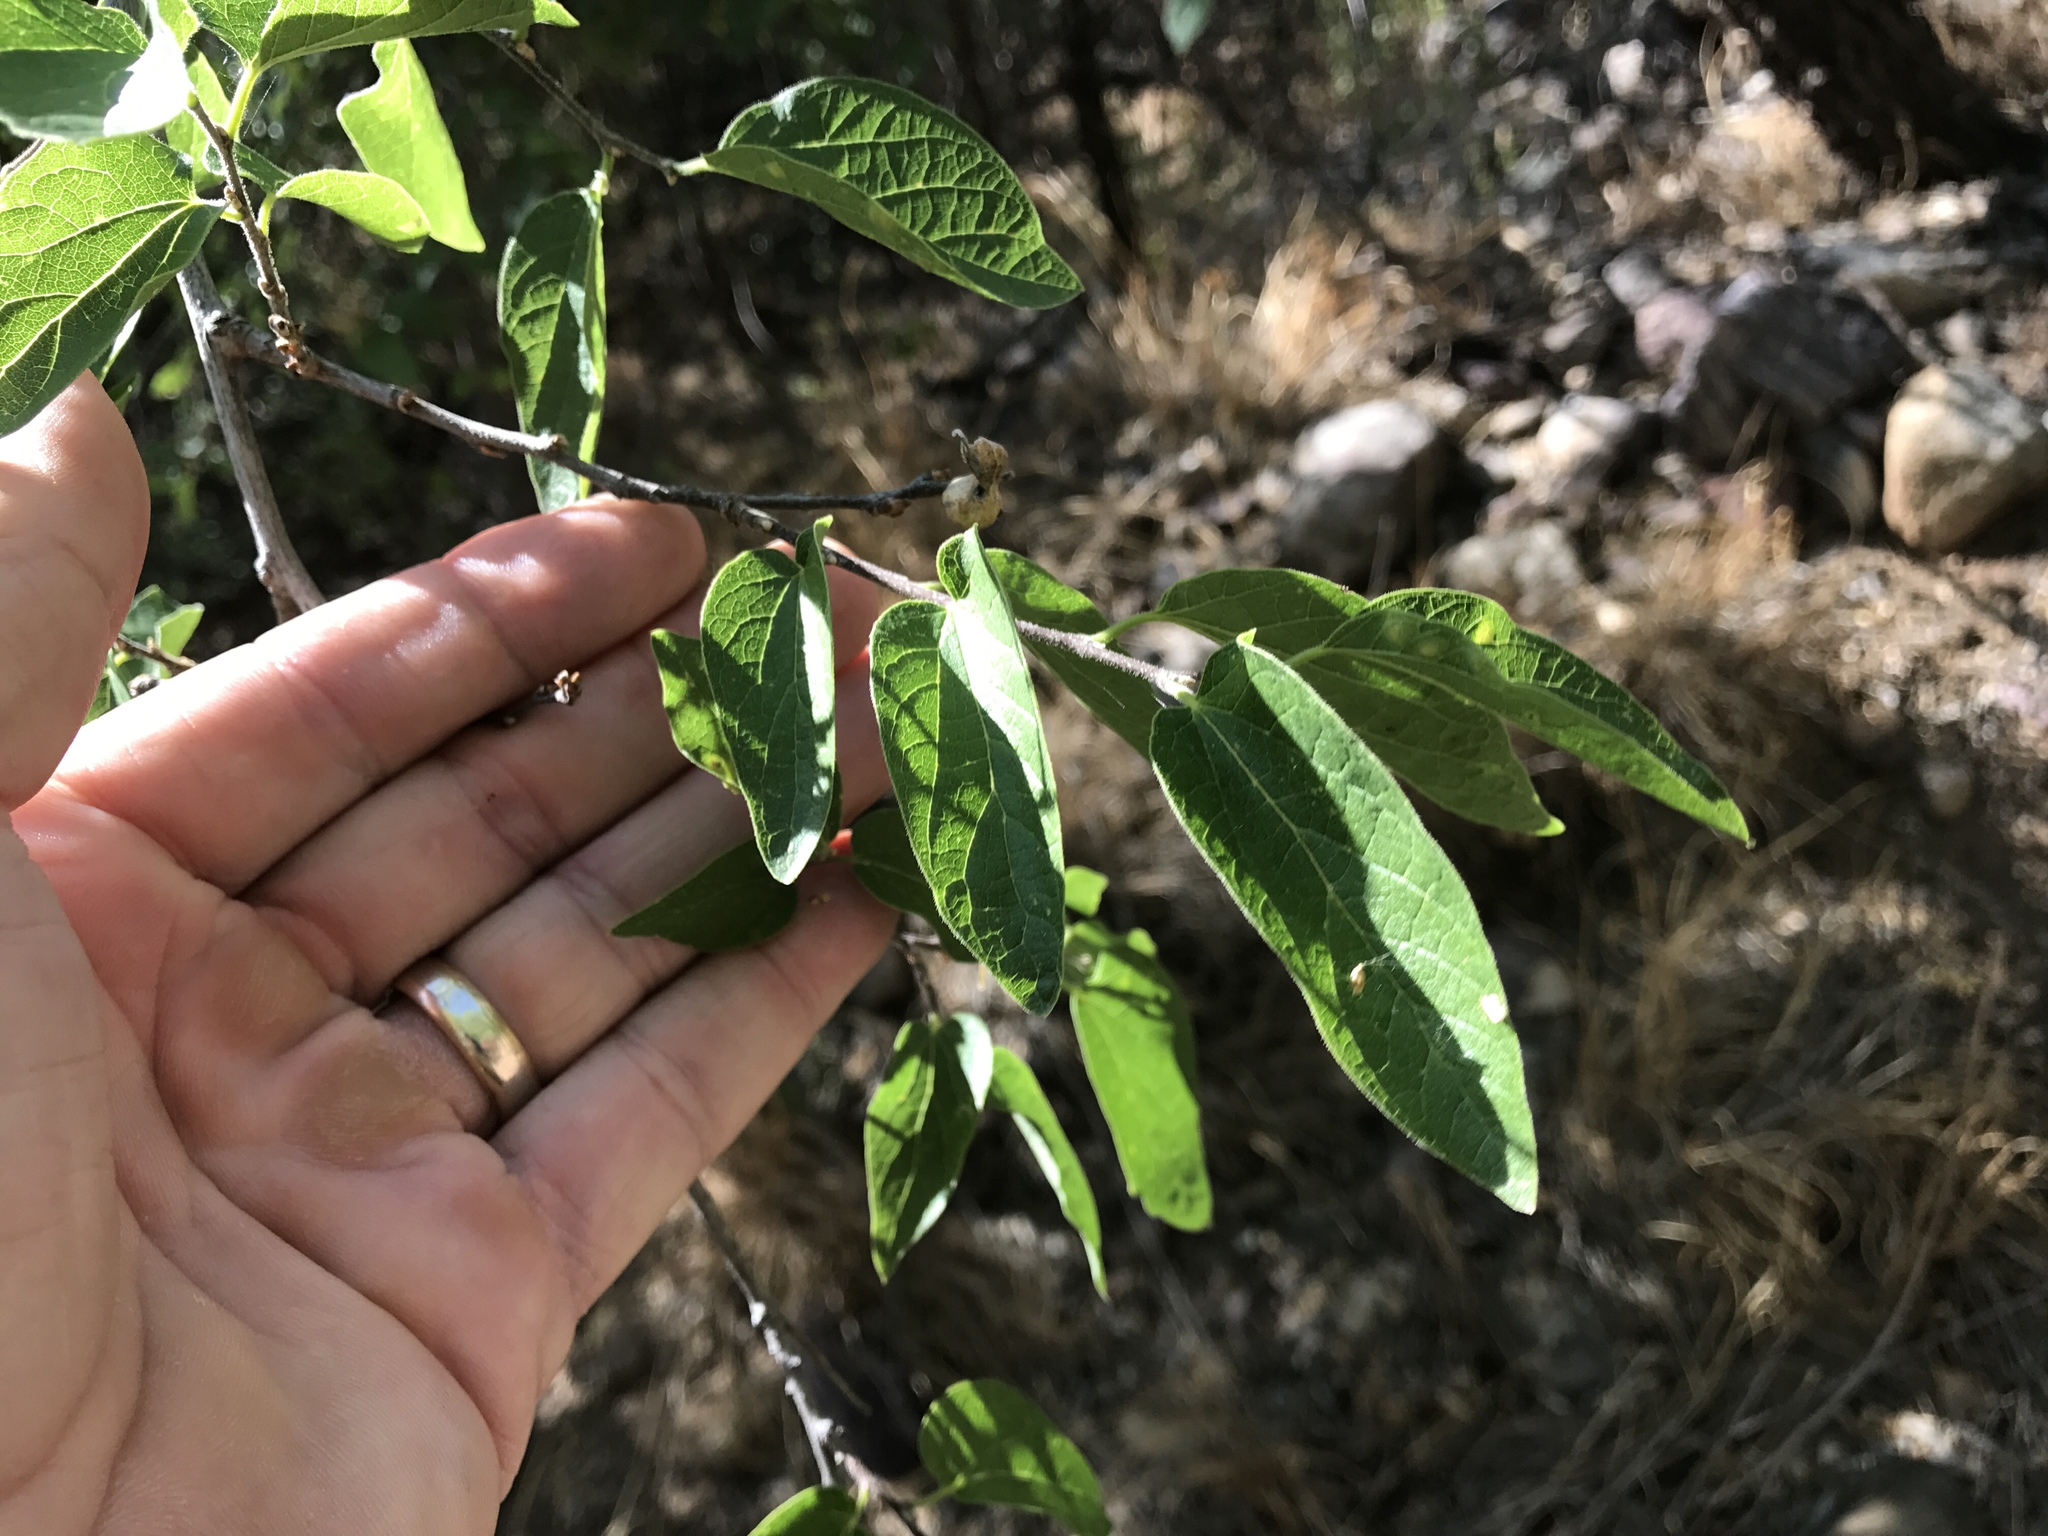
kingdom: Plantae
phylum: Tracheophyta
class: Magnoliopsida
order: Rosales
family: Cannabaceae
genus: Celtis
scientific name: Celtis reticulata
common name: Netleaf hackberry
